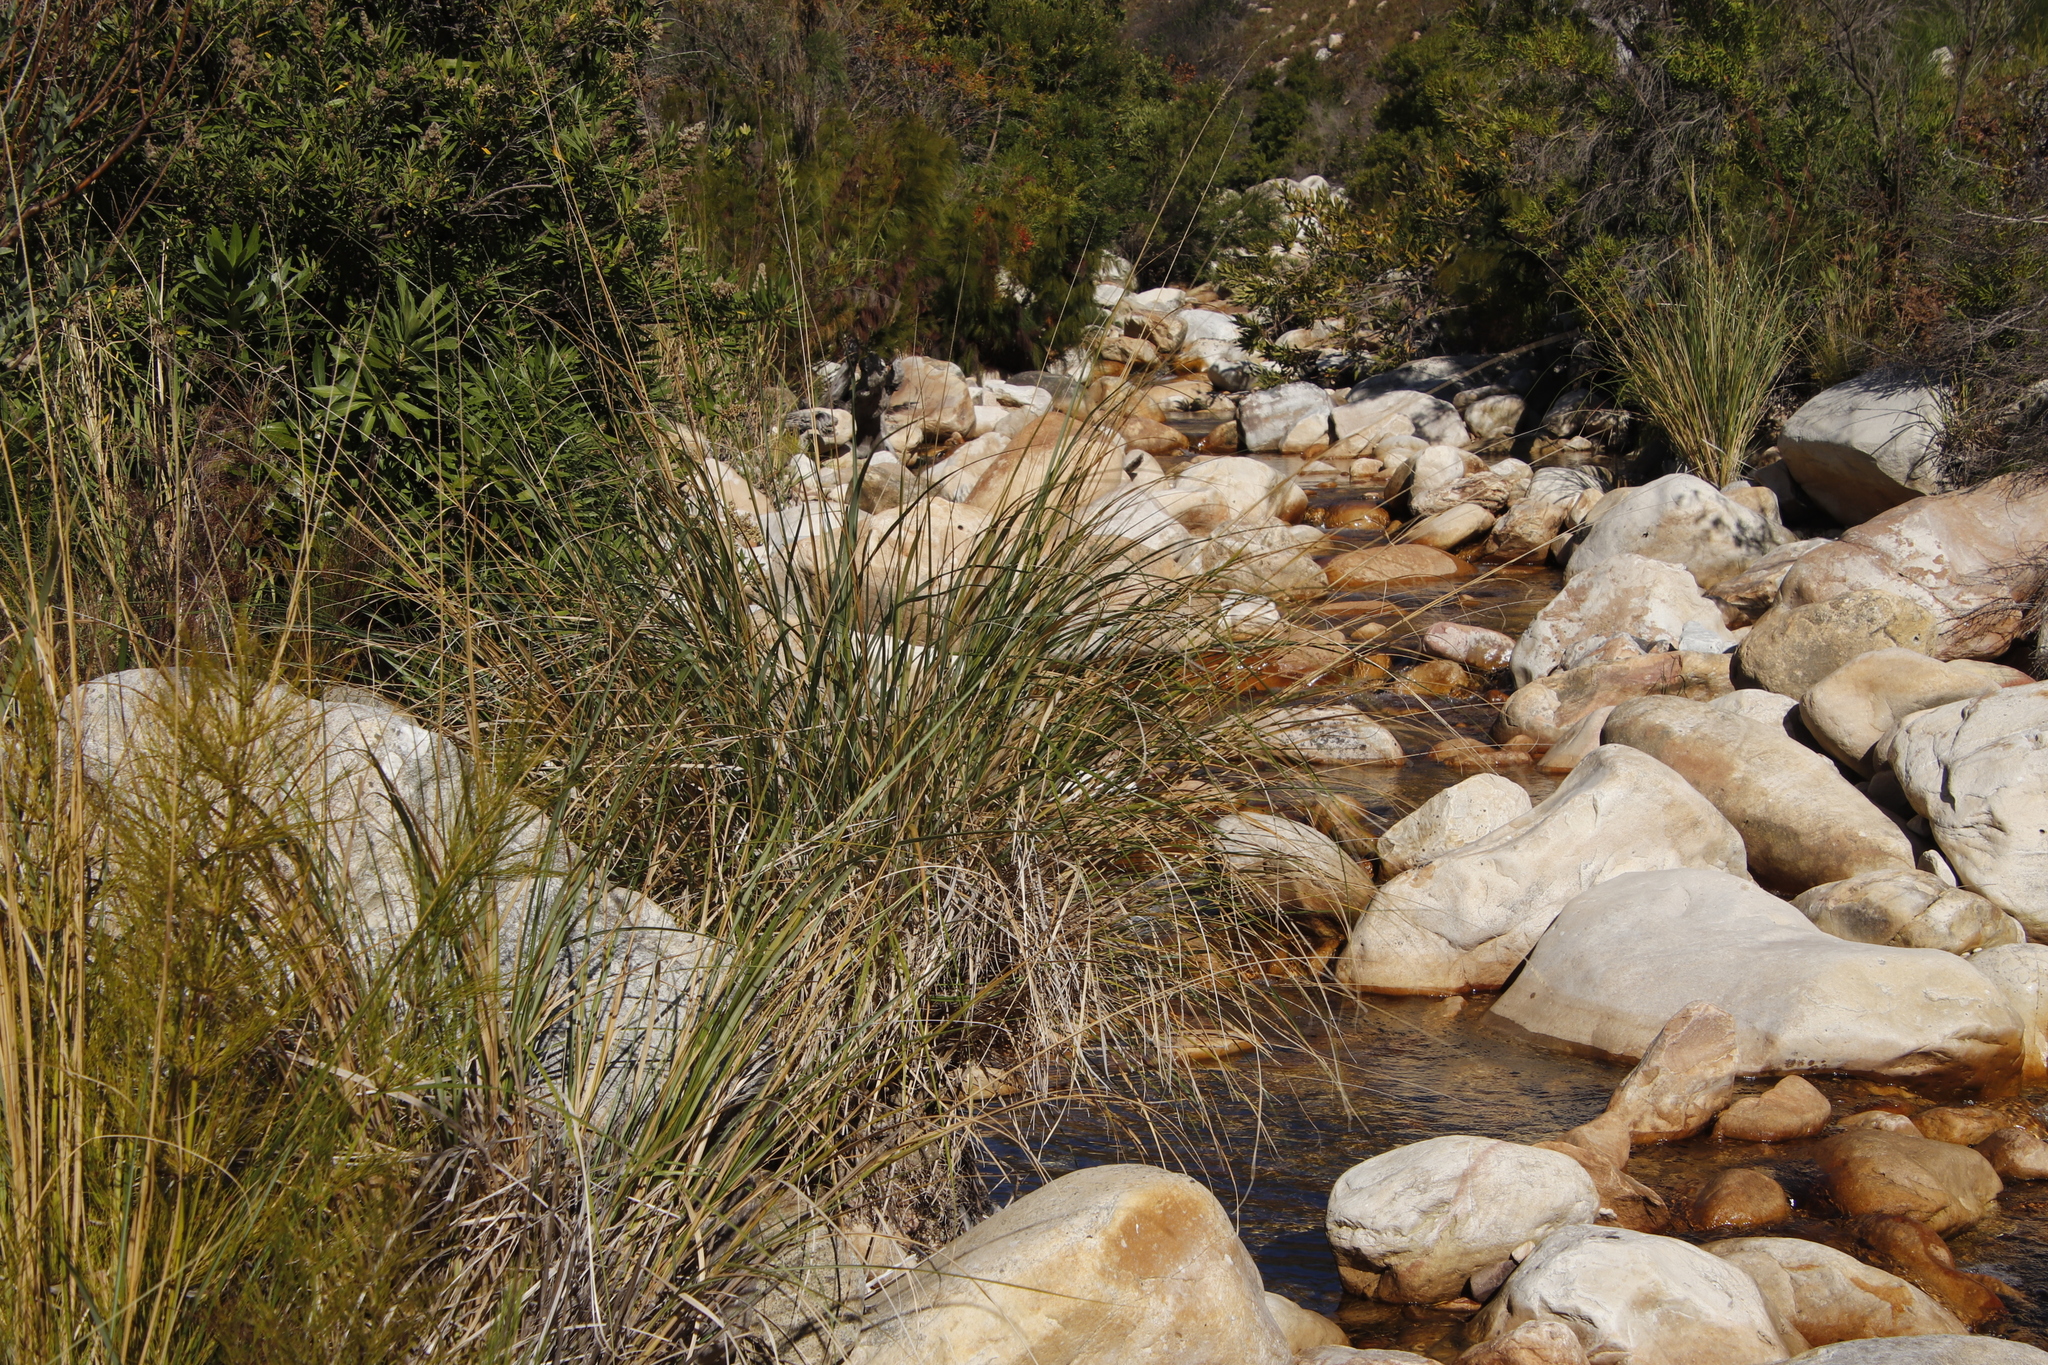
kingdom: Plantae
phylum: Tracheophyta
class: Liliopsida
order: Poales
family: Poaceae
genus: Capeochloa
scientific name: Capeochloa cincta
